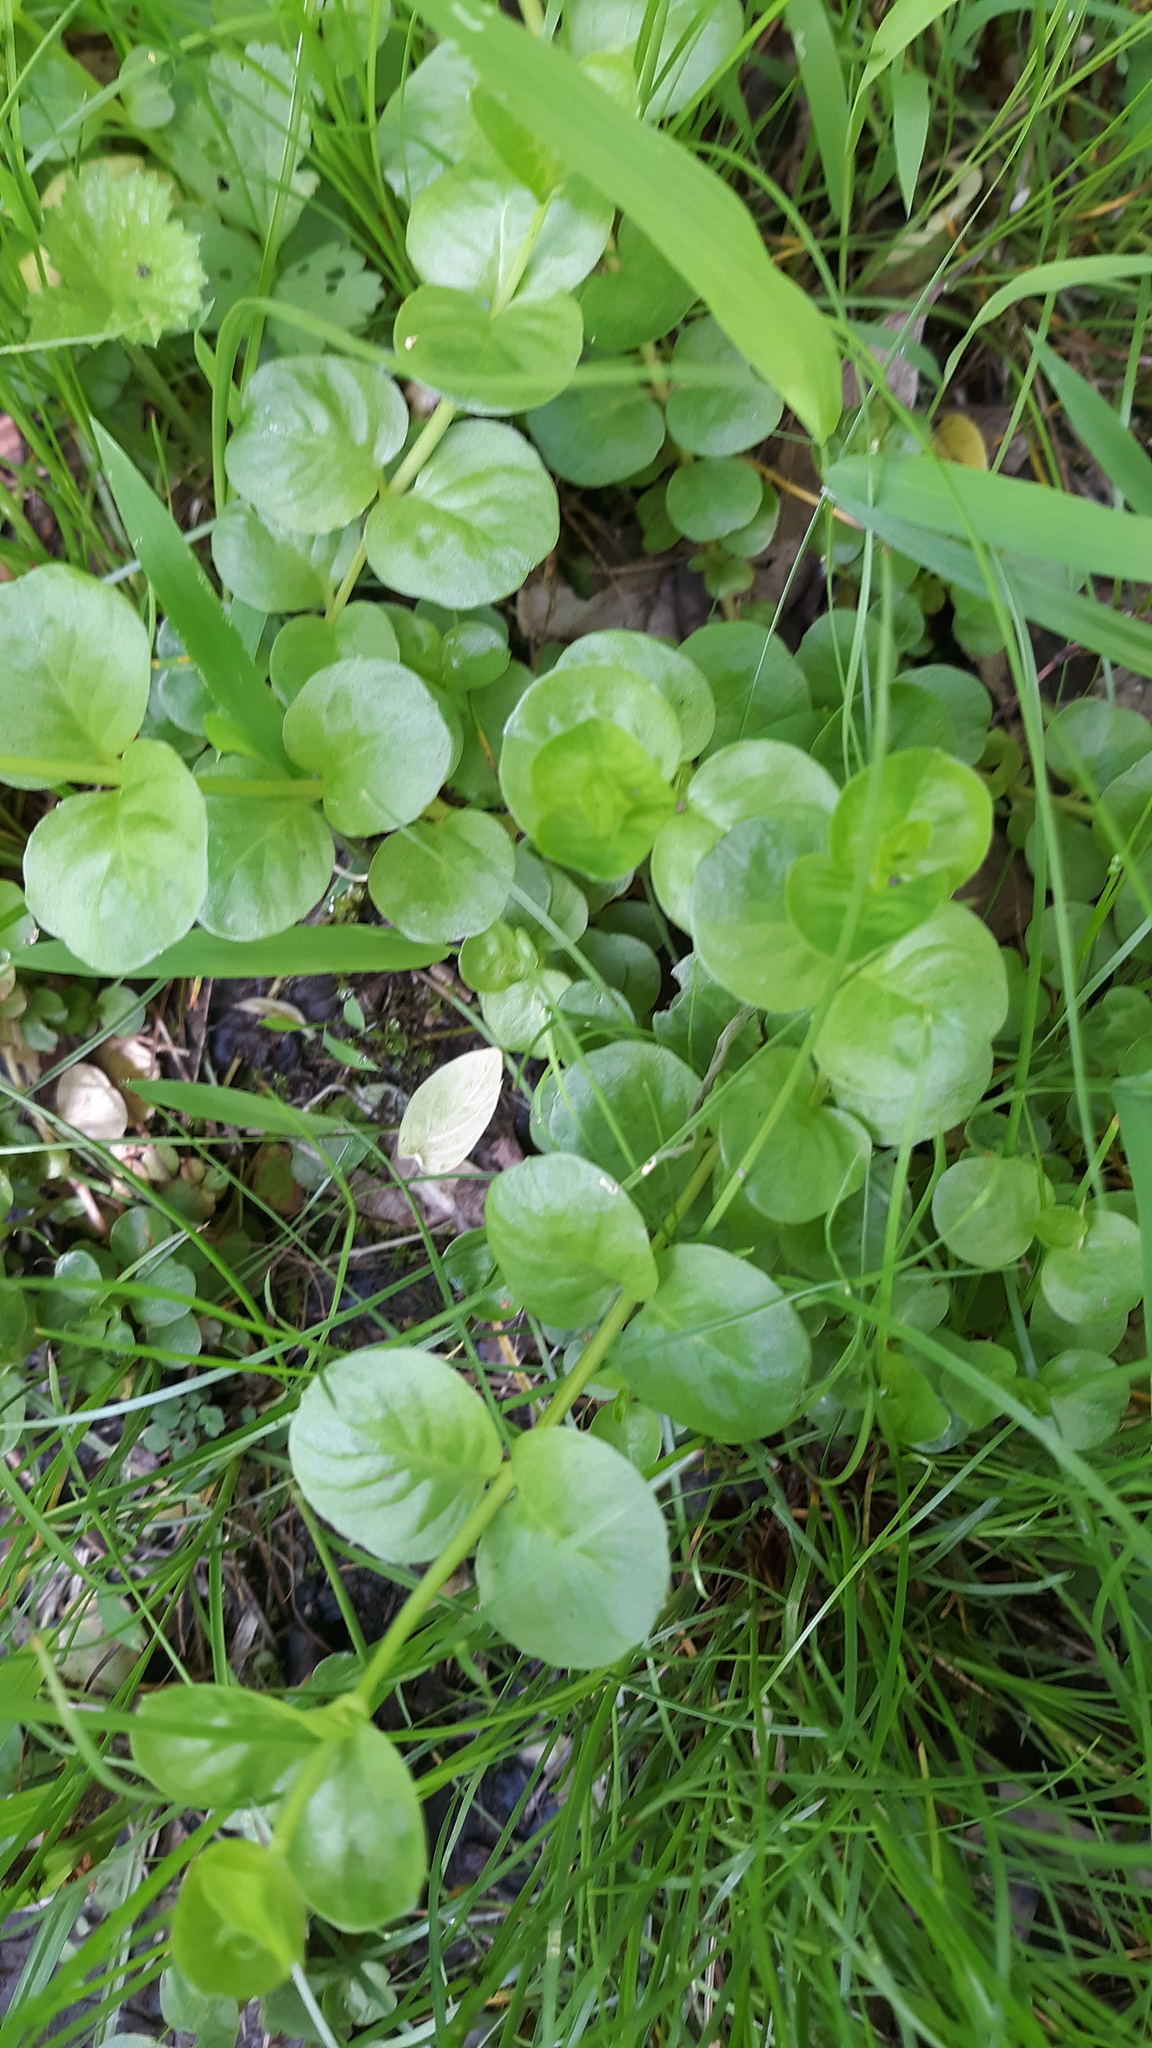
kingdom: Plantae
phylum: Tracheophyta
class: Magnoliopsida
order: Ericales
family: Primulaceae
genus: Lysimachia
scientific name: Lysimachia nummularia
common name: Moneywort
